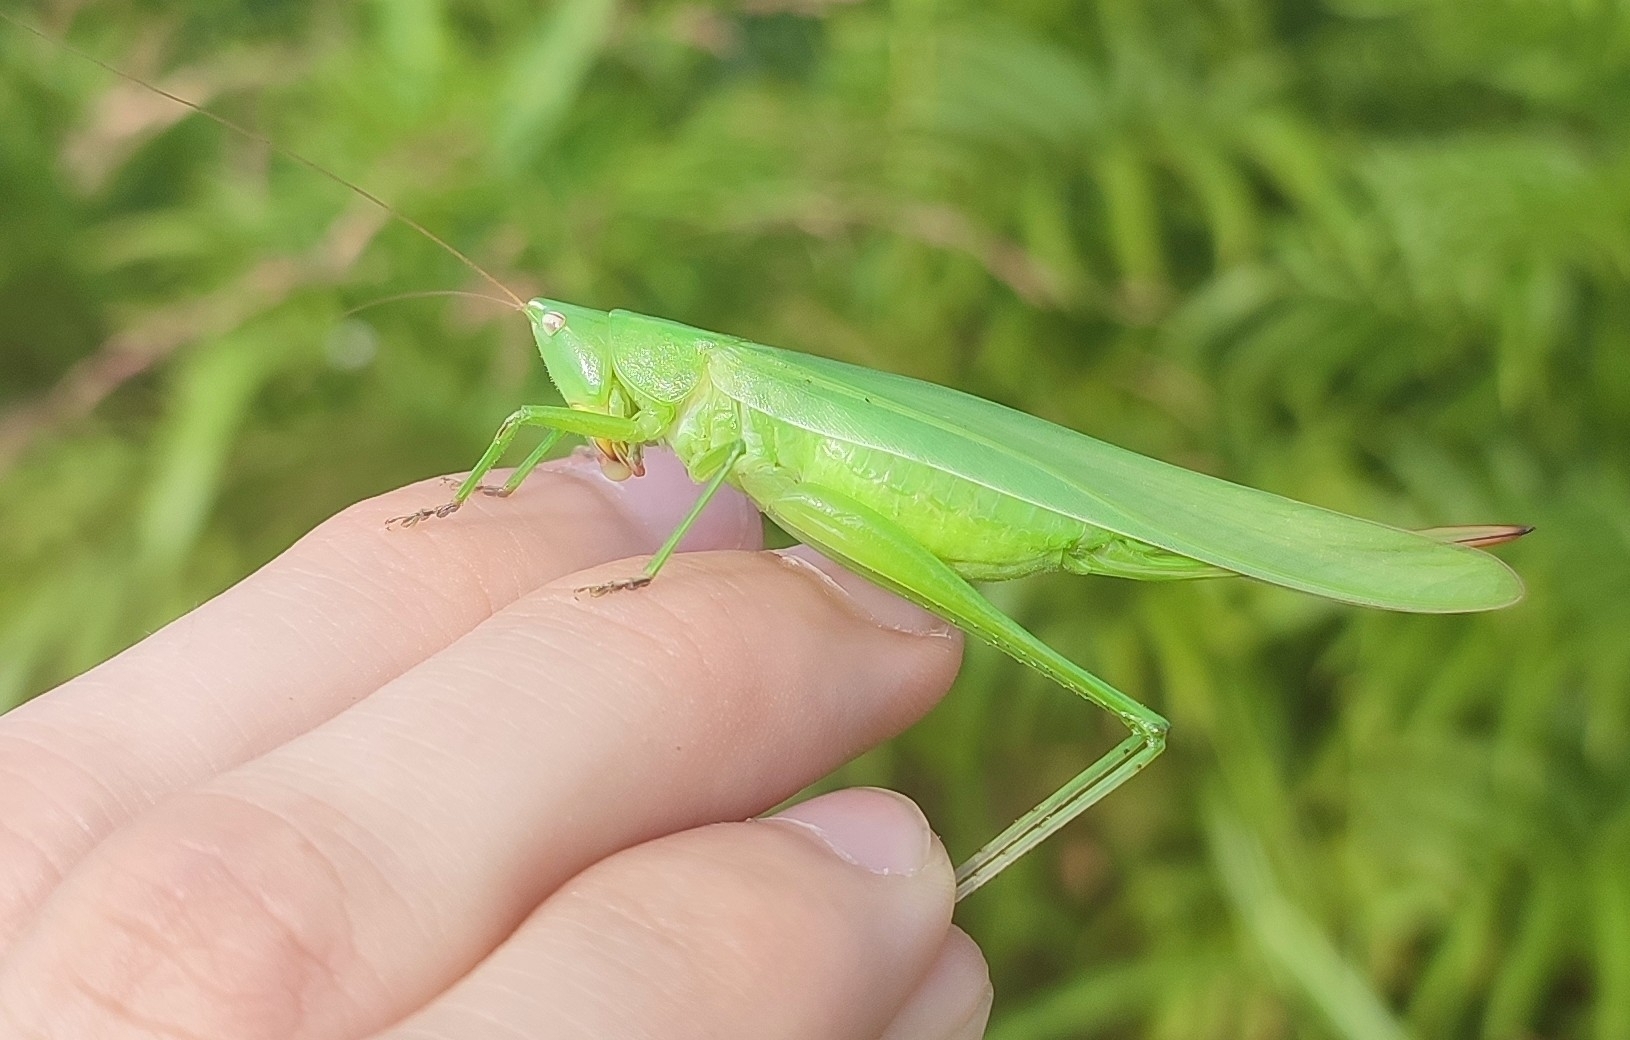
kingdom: Animalia
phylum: Arthropoda
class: Insecta
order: Orthoptera
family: Tettigoniidae
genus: Ruspolia
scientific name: Ruspolia nitidula
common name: Large conehead
